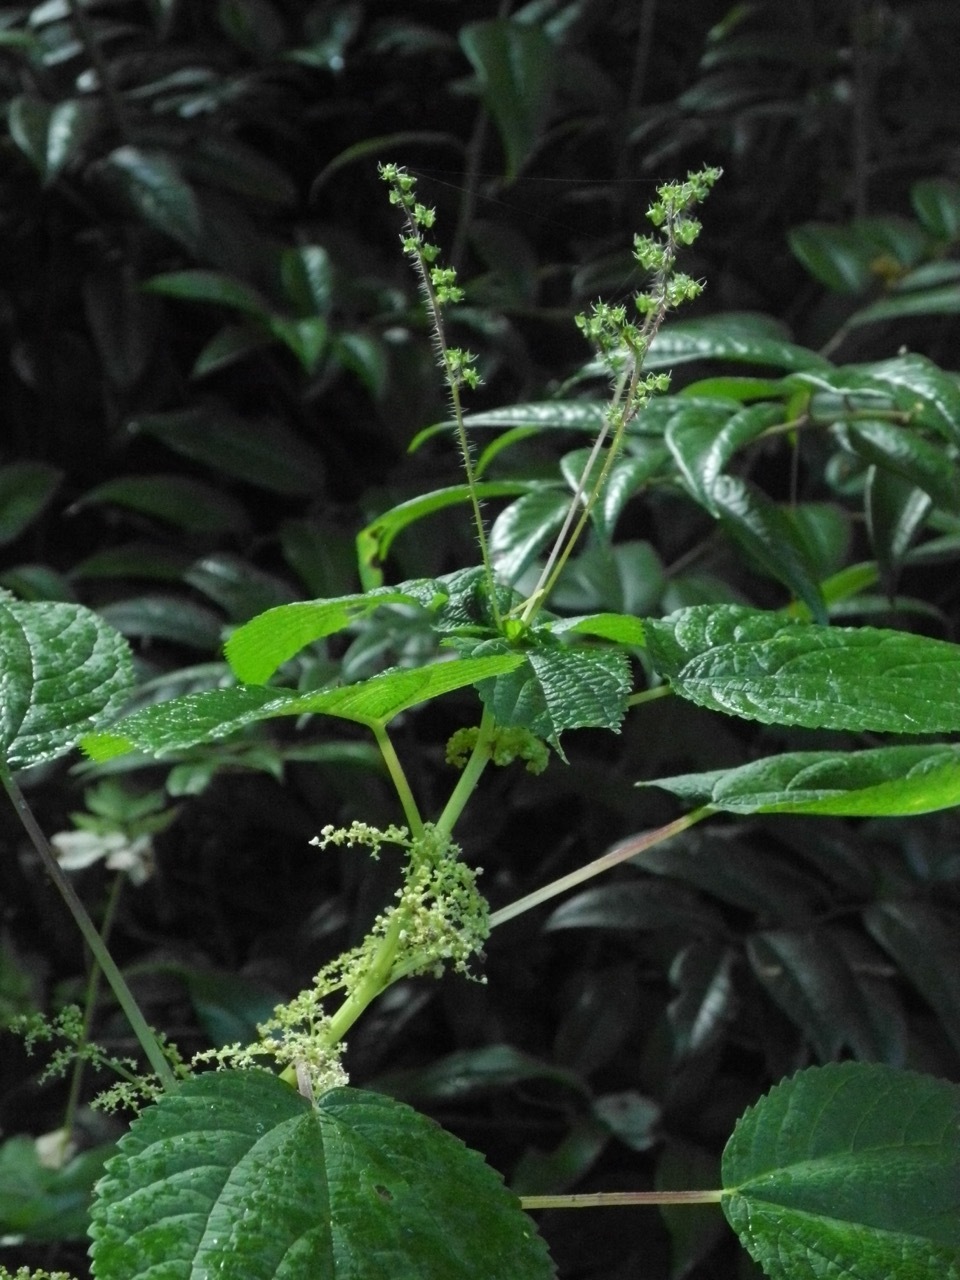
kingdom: Plantae
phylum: Tracheophyta
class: Magnoliopsida
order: Rosales
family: Urticaceae
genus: Boehmeria
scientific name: Boehmeria cylindrica
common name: Bog-hemp
